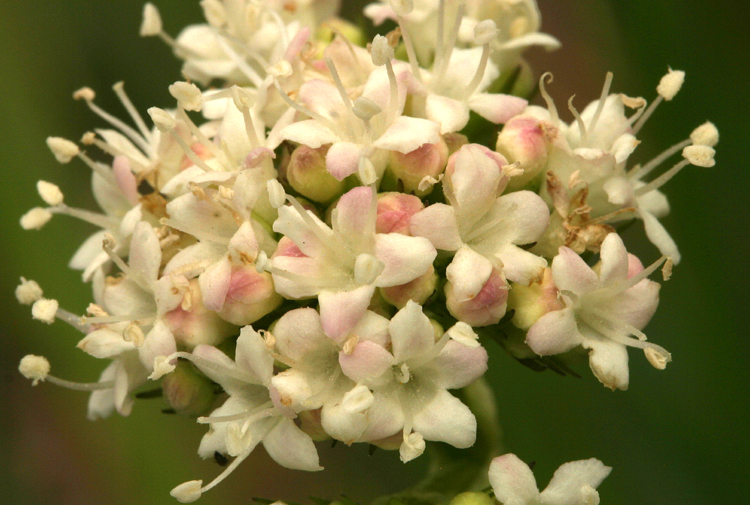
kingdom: Plantae
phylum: Tracheophyta
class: Magnoliopsida
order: Dipsacales
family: Caprifoliaceae
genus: Valeriana
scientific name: Valeriana californica
